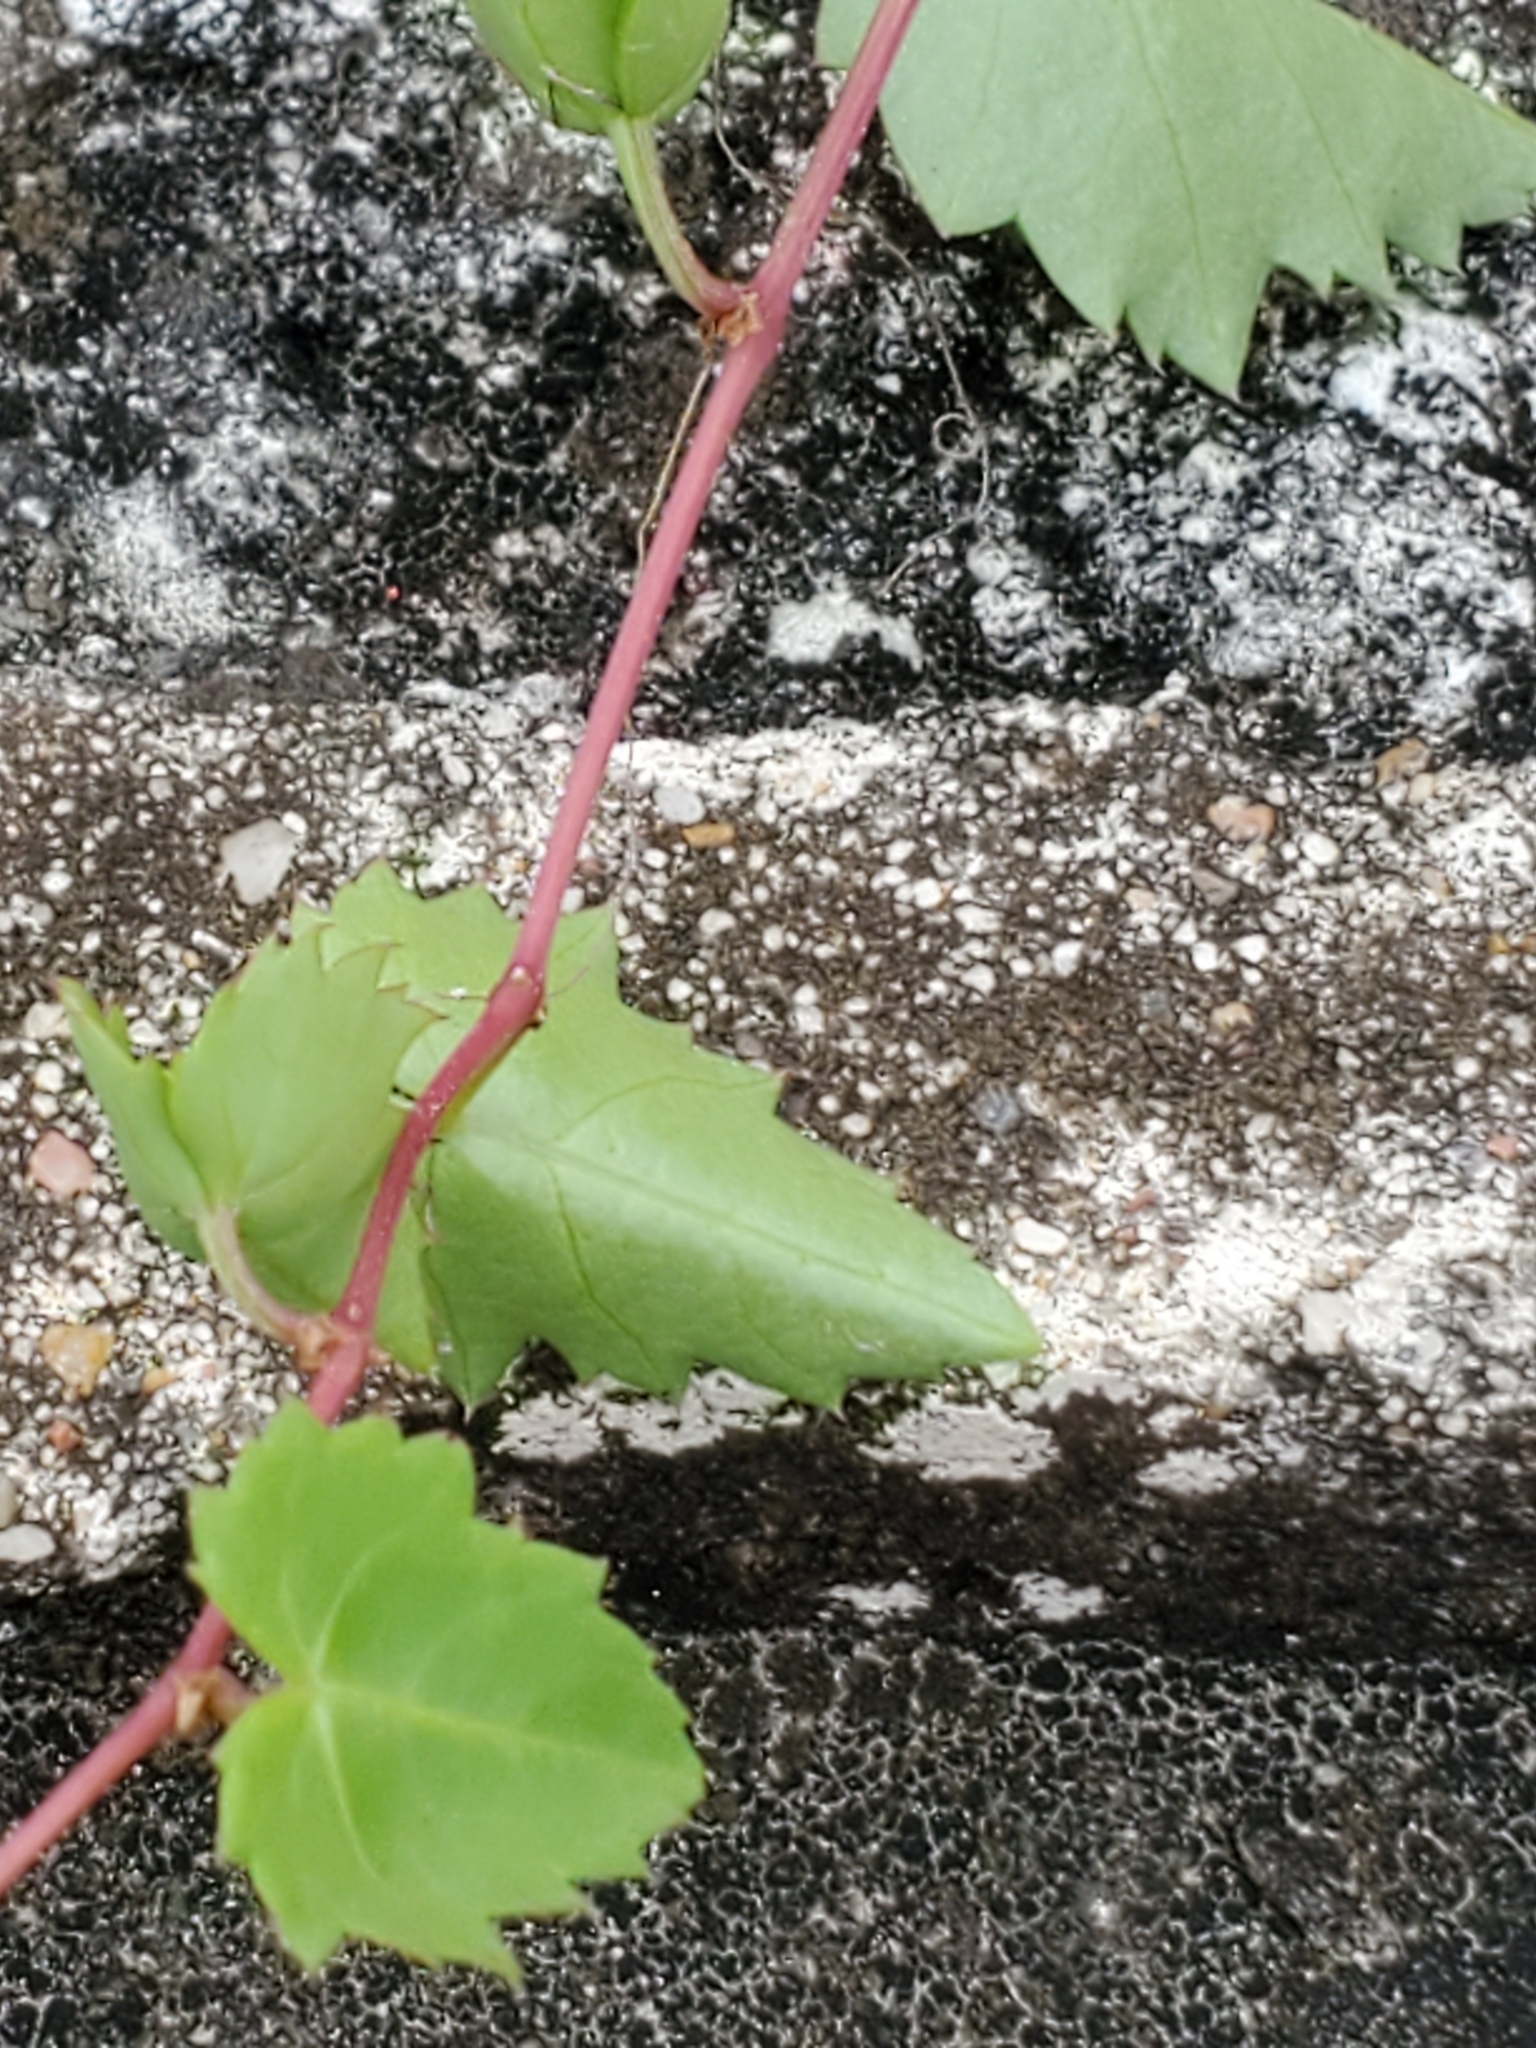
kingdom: Plantae
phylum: Tracheophyta
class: Magnoliopsida
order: Vitales
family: Vitaceae
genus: Cissus
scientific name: Cissus trifoliata
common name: Vine-sorrel
